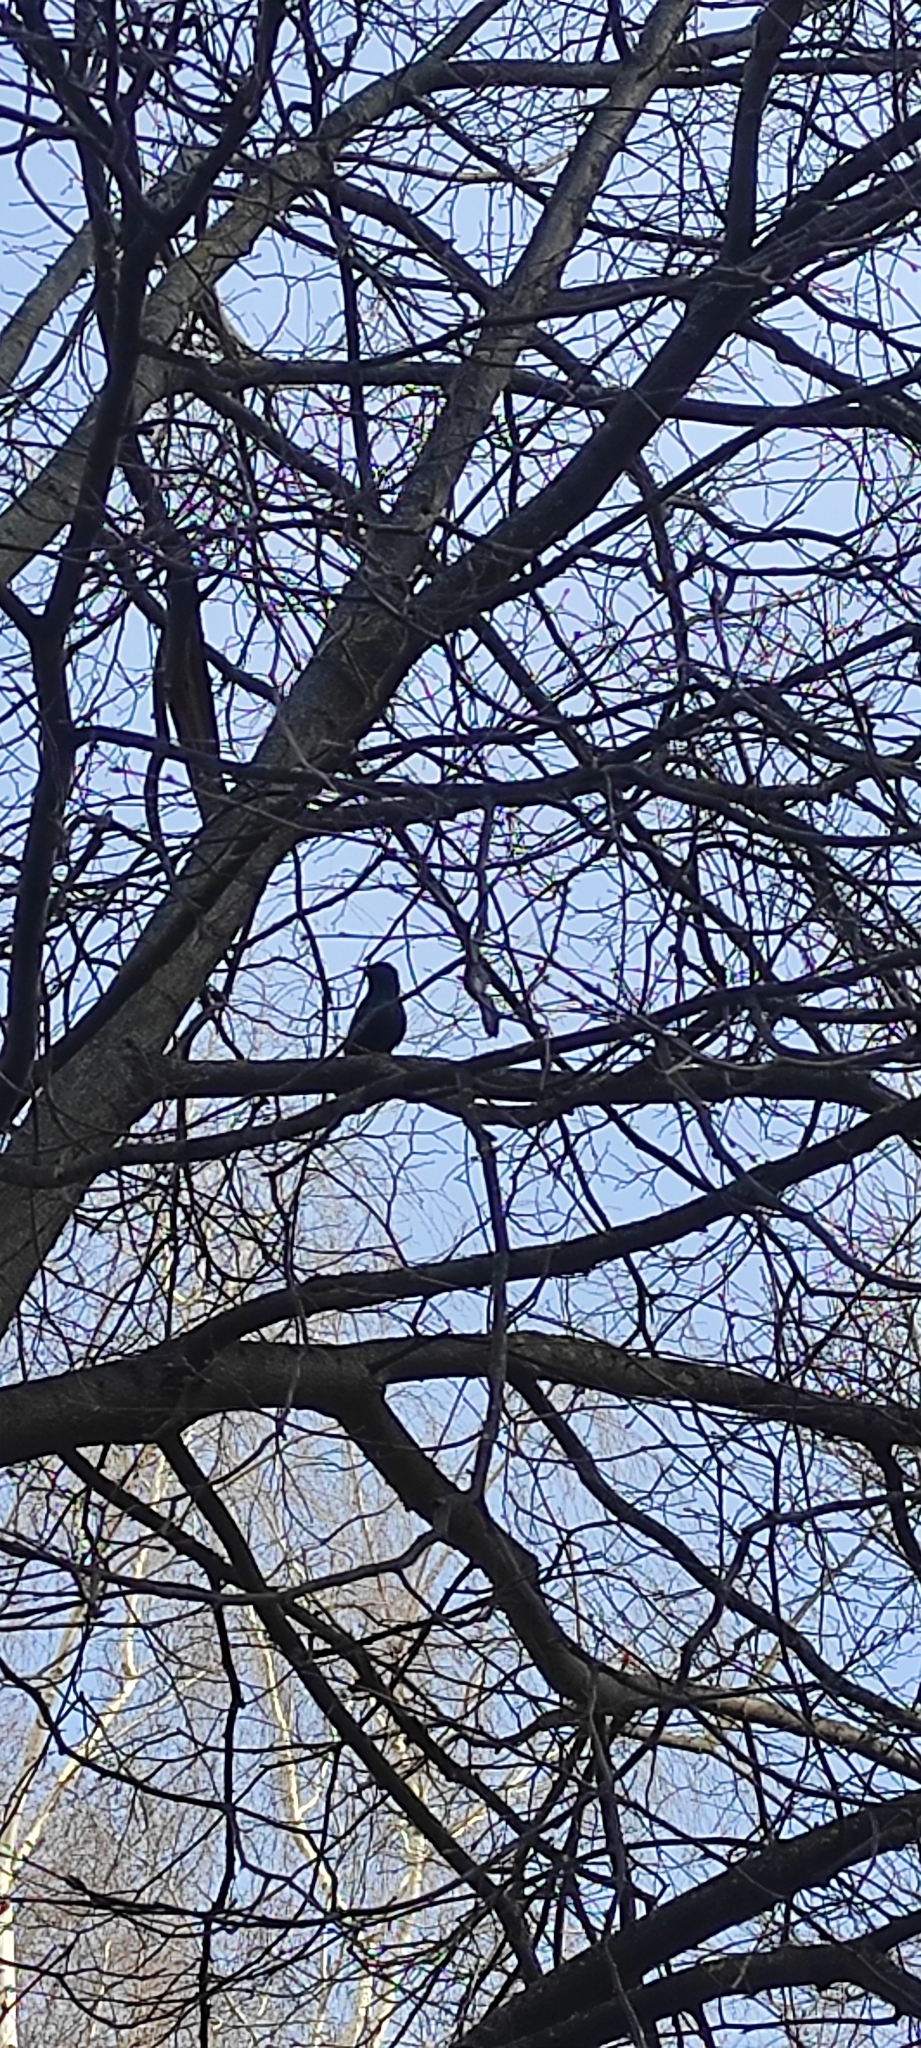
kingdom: Animalia
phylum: Chordata
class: Aves
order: Passeriformes
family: Sturnidae
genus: Sturnus
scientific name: Sturnus vulgaris
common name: Common starling
